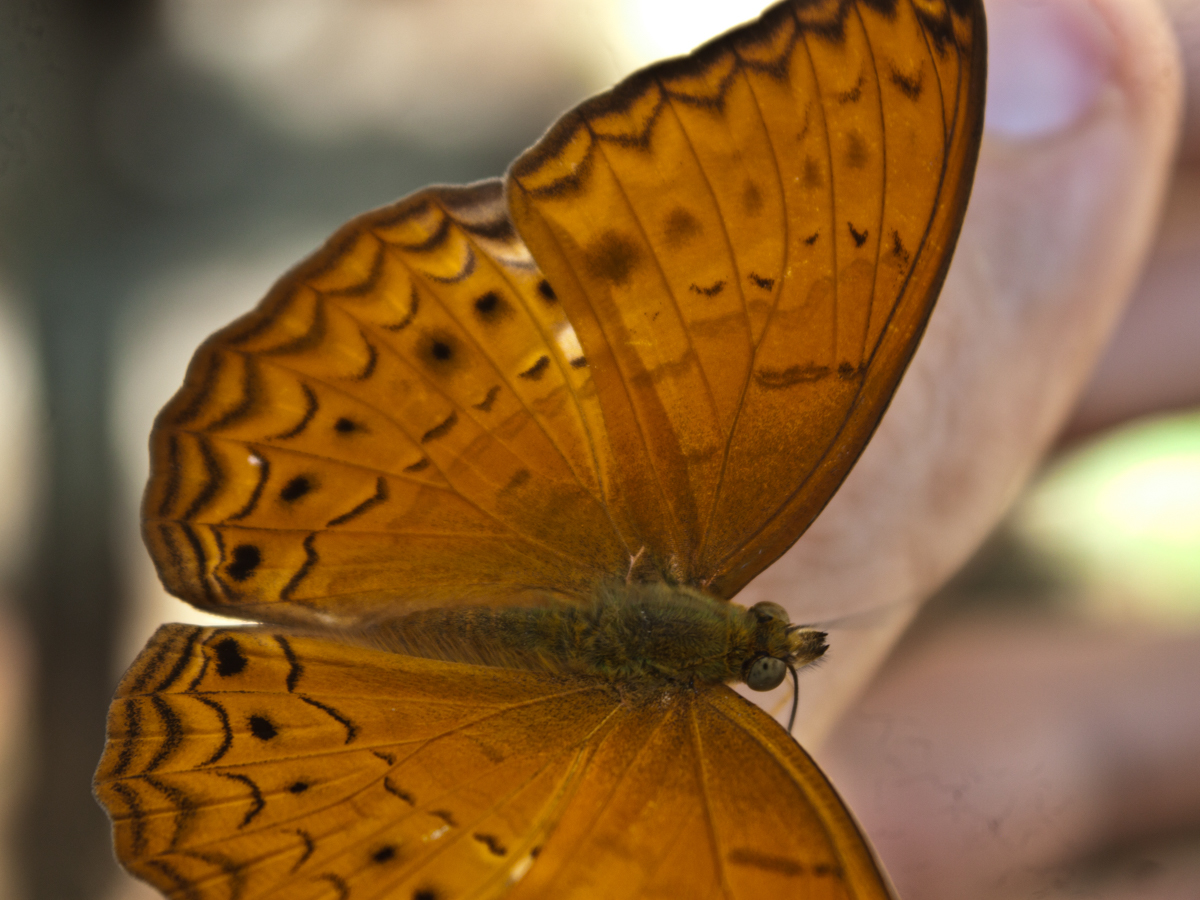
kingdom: Animalia
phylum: Arthropoda
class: Insecta
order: Lepidoptera
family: Nymphalidae
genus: Cirrochroa
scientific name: Cirrochroa tyche
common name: Common yeoman
